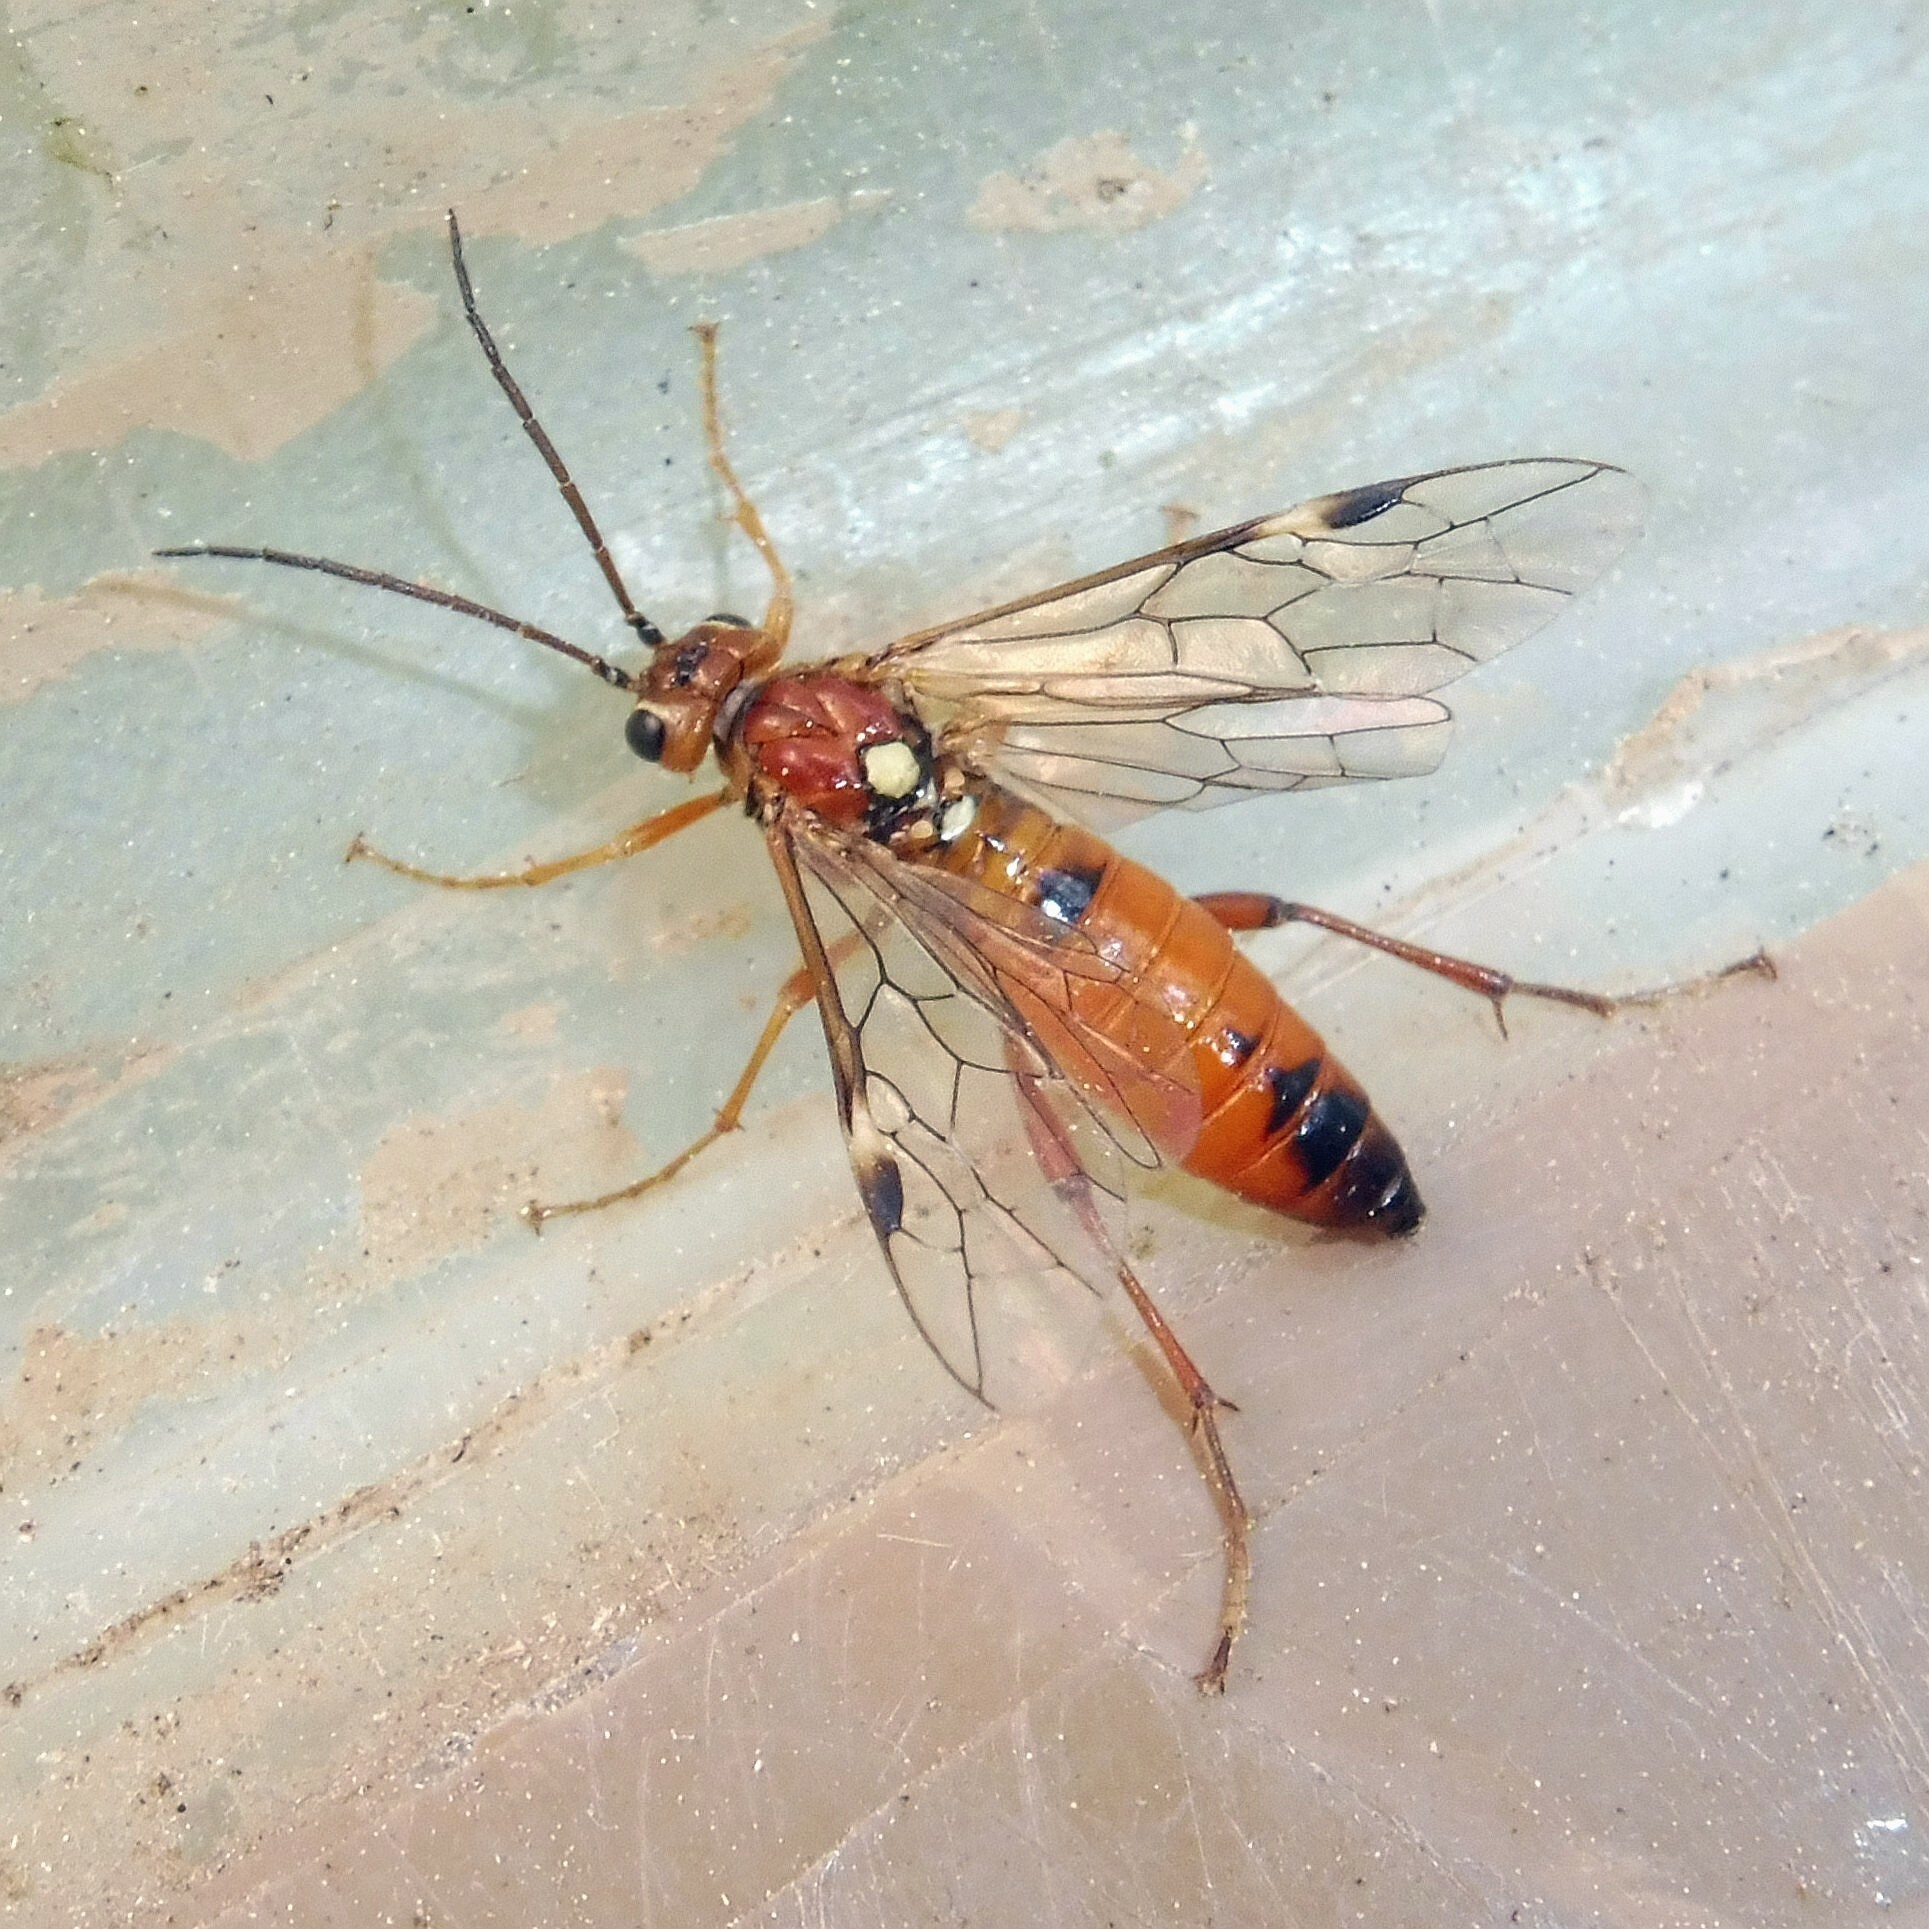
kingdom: Animalia
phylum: Arthropoda
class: Insecta
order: Hymenoptera
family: Tenthredinidae
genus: Tenthredopsis
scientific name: Tenthredopsis nassata
